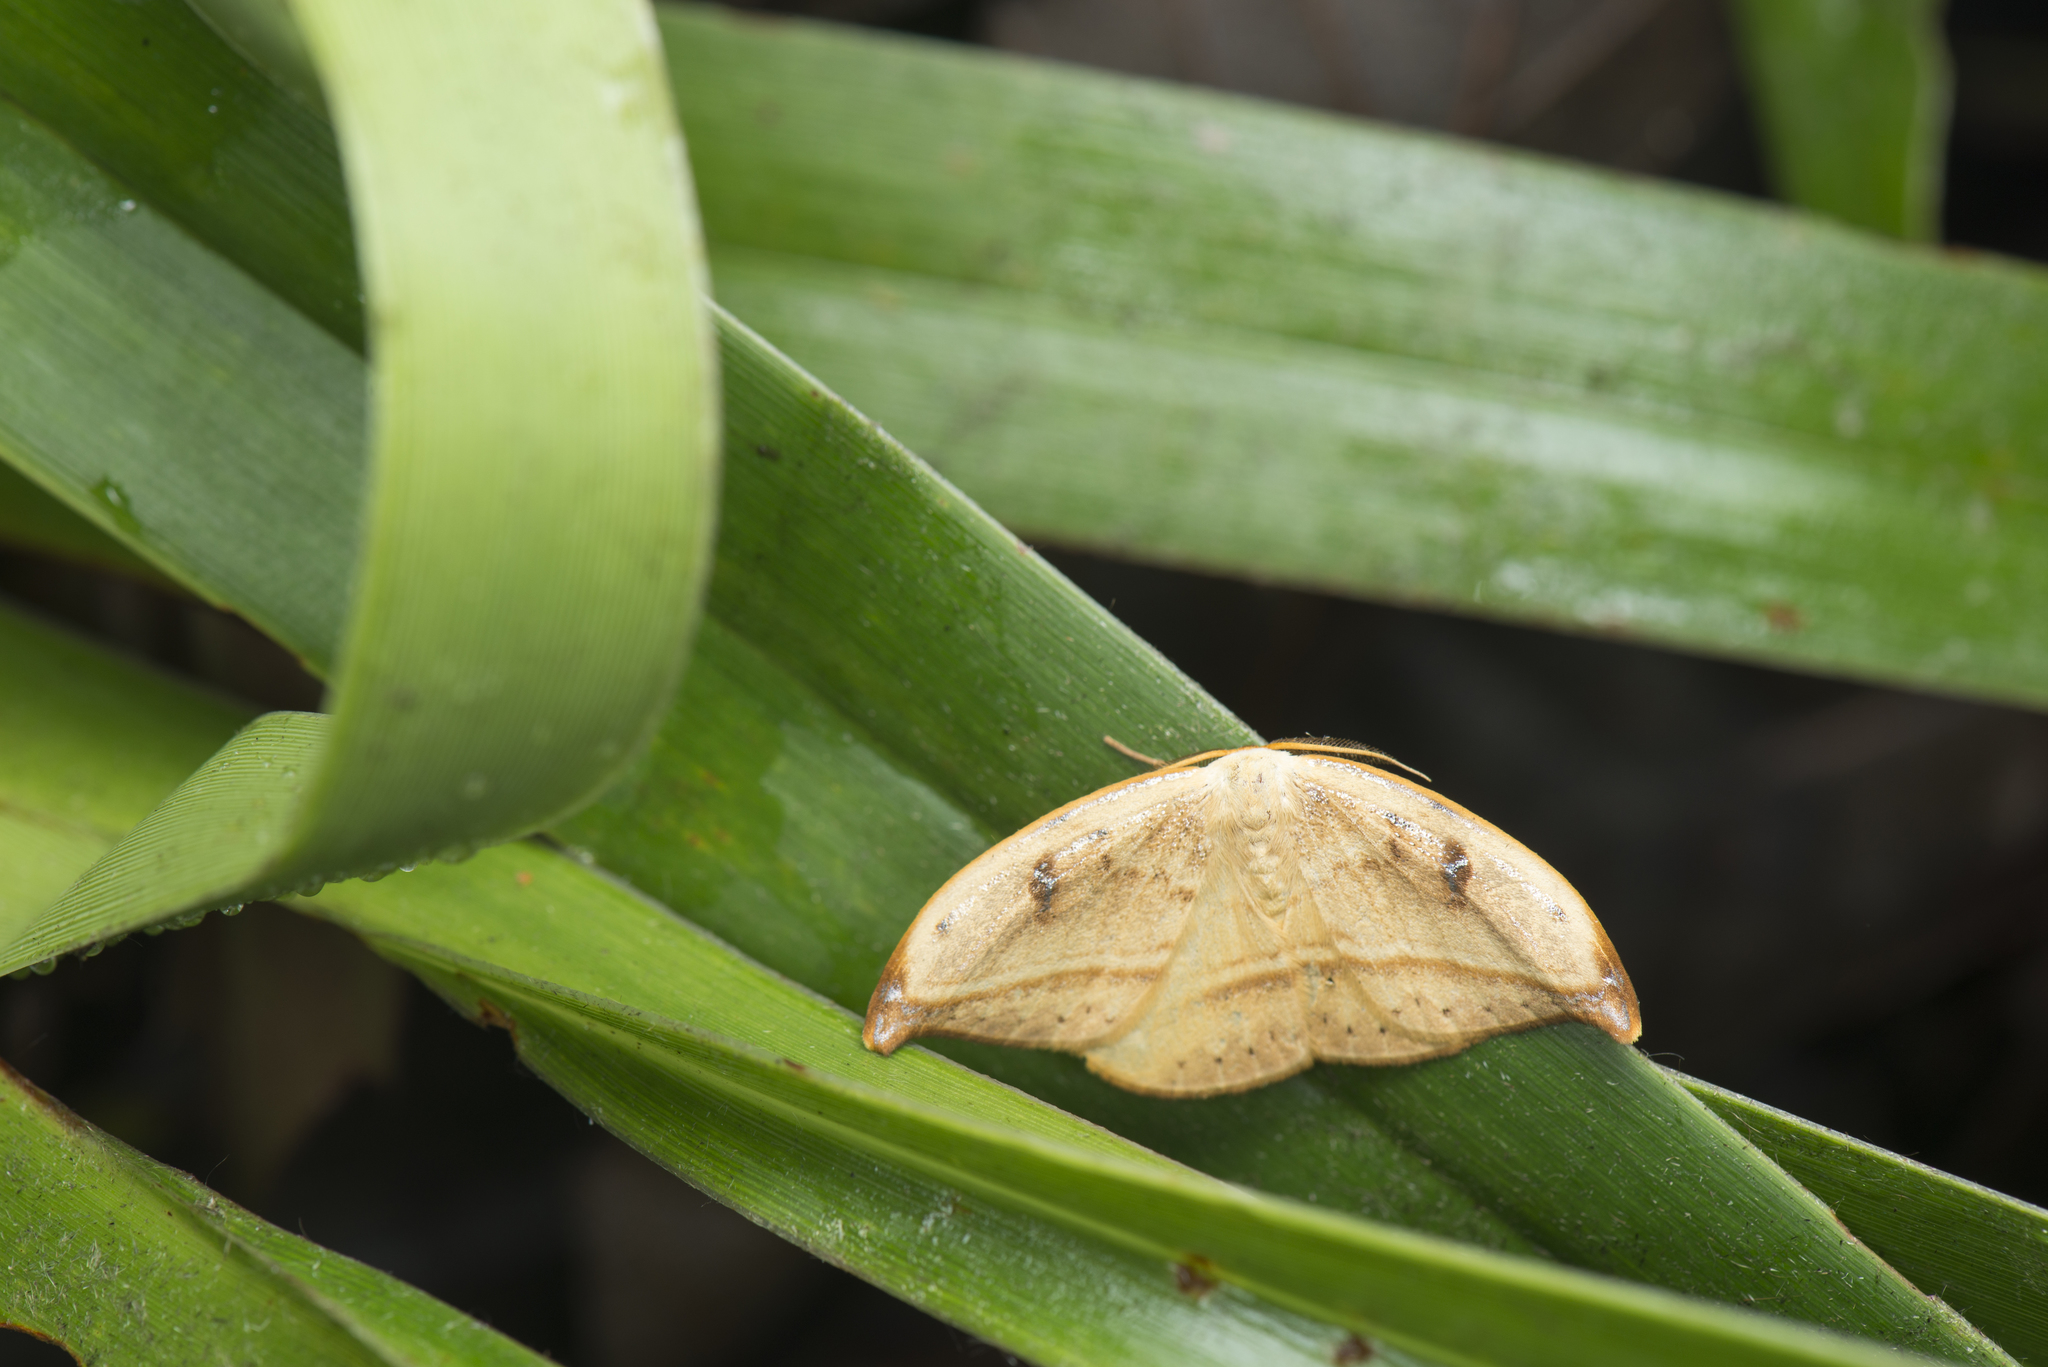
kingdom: Animalia
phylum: Arthropoda
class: Insecta
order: Lepidoptera
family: Drepanidae
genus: Callidrepana
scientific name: Callidrepana patrana
